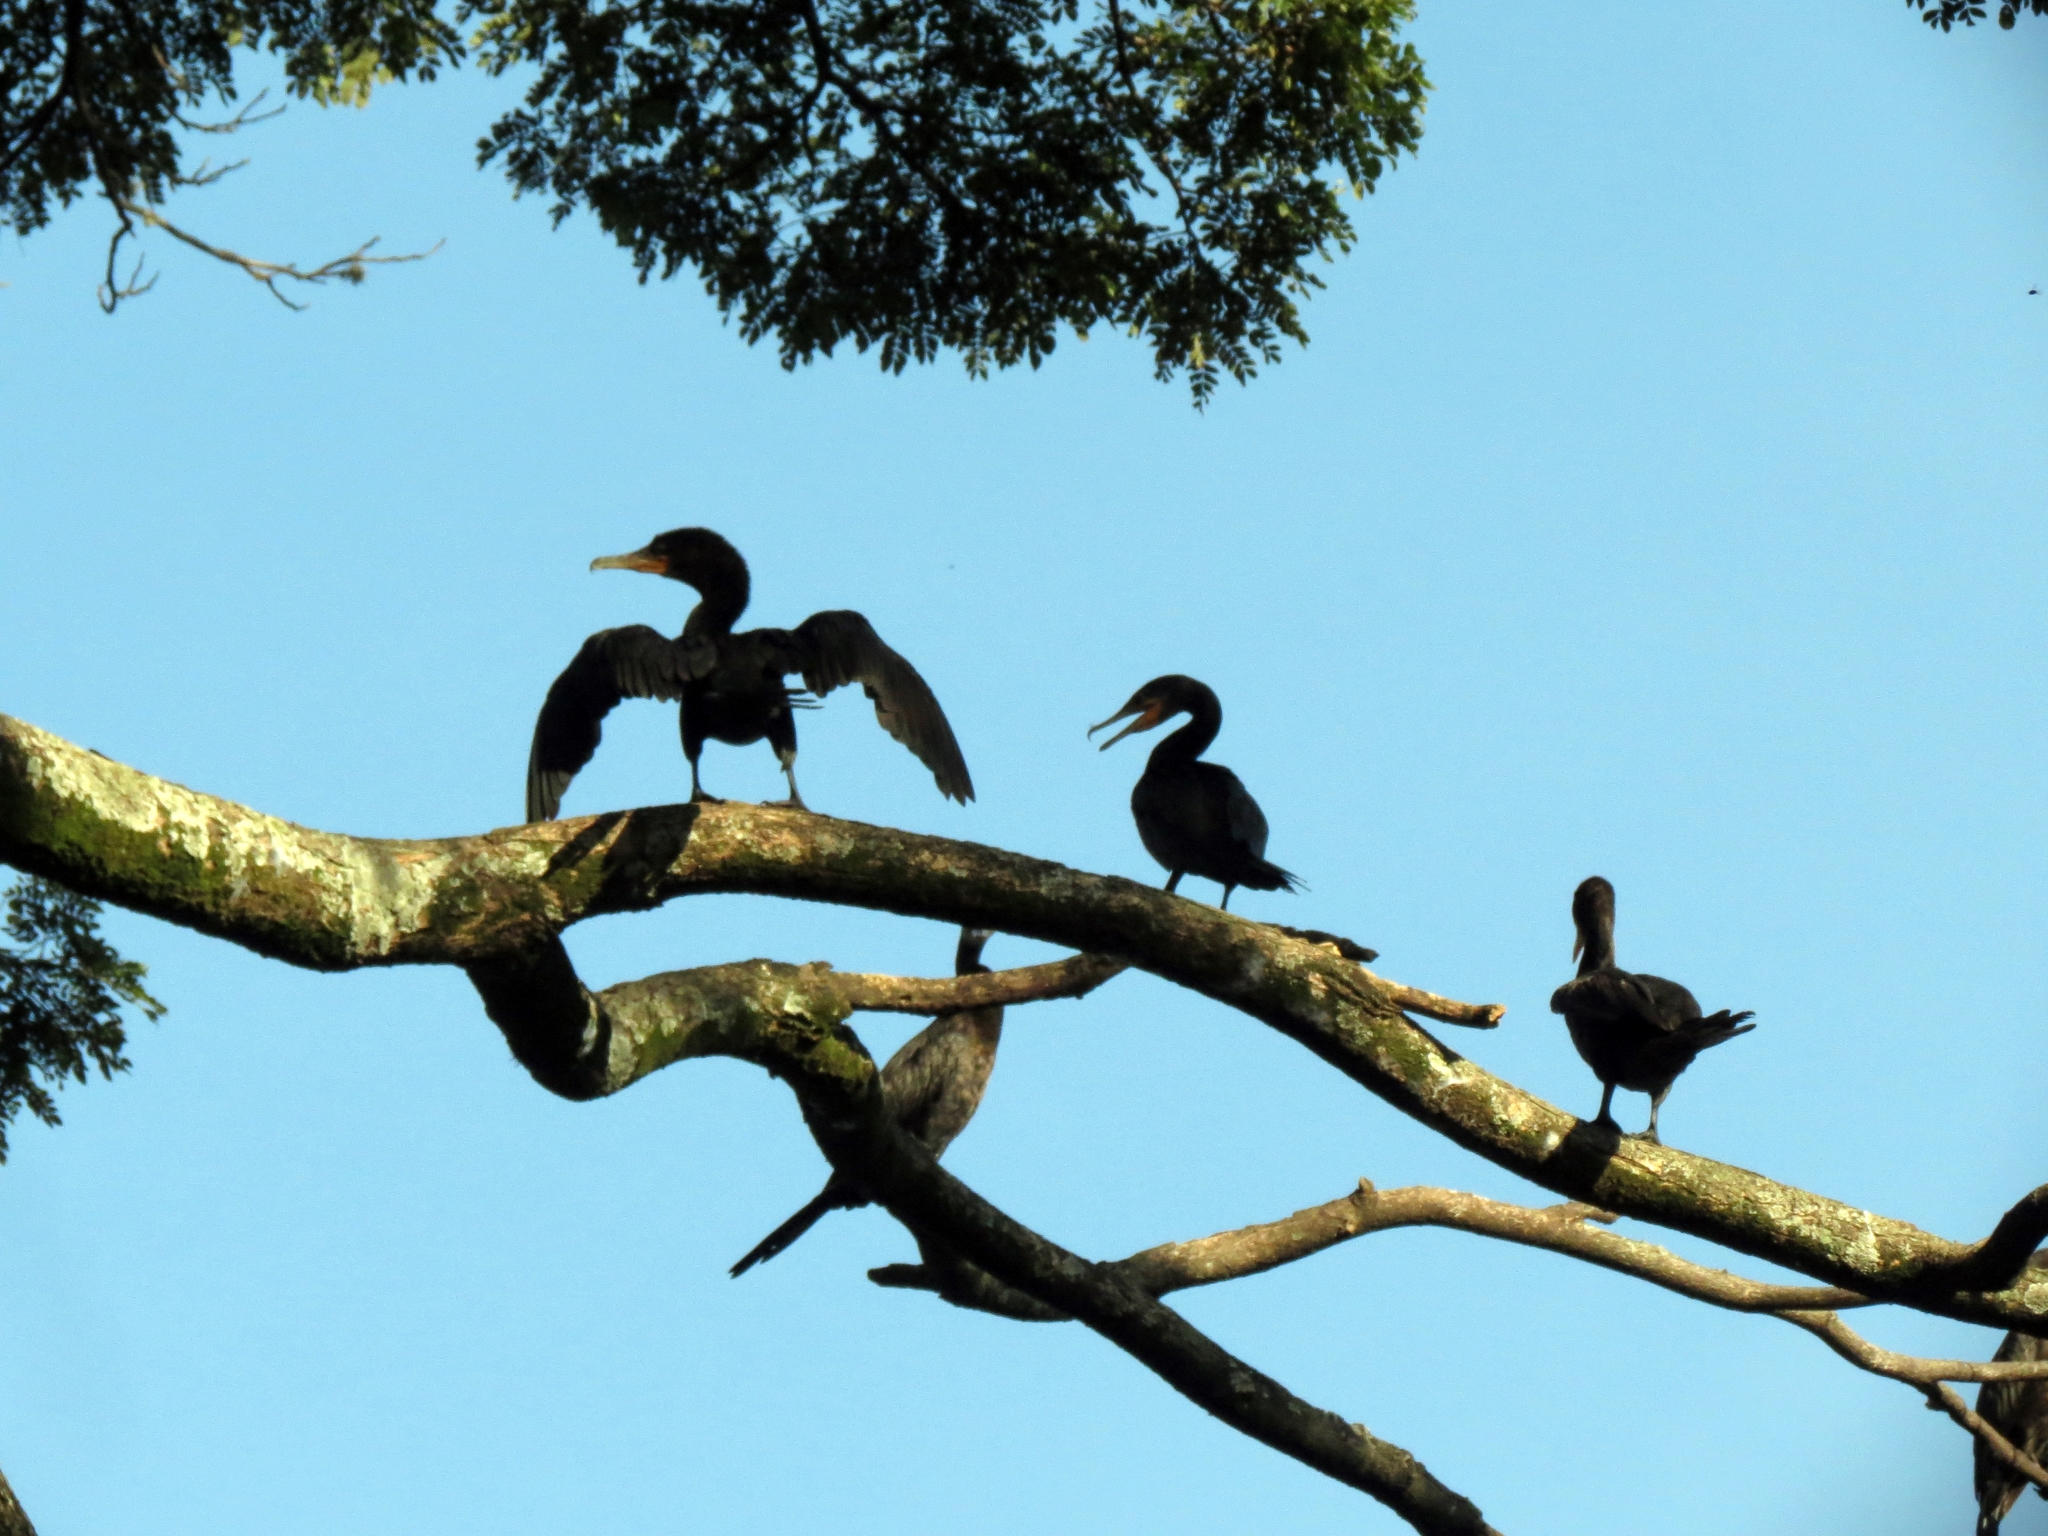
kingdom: Animalia
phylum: Chordata
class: Aves
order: Suliformes
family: Phalacrocoracidae
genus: Phalacrocorax
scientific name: Phalacrocorax brasilianus
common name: Neotropic cormorant
